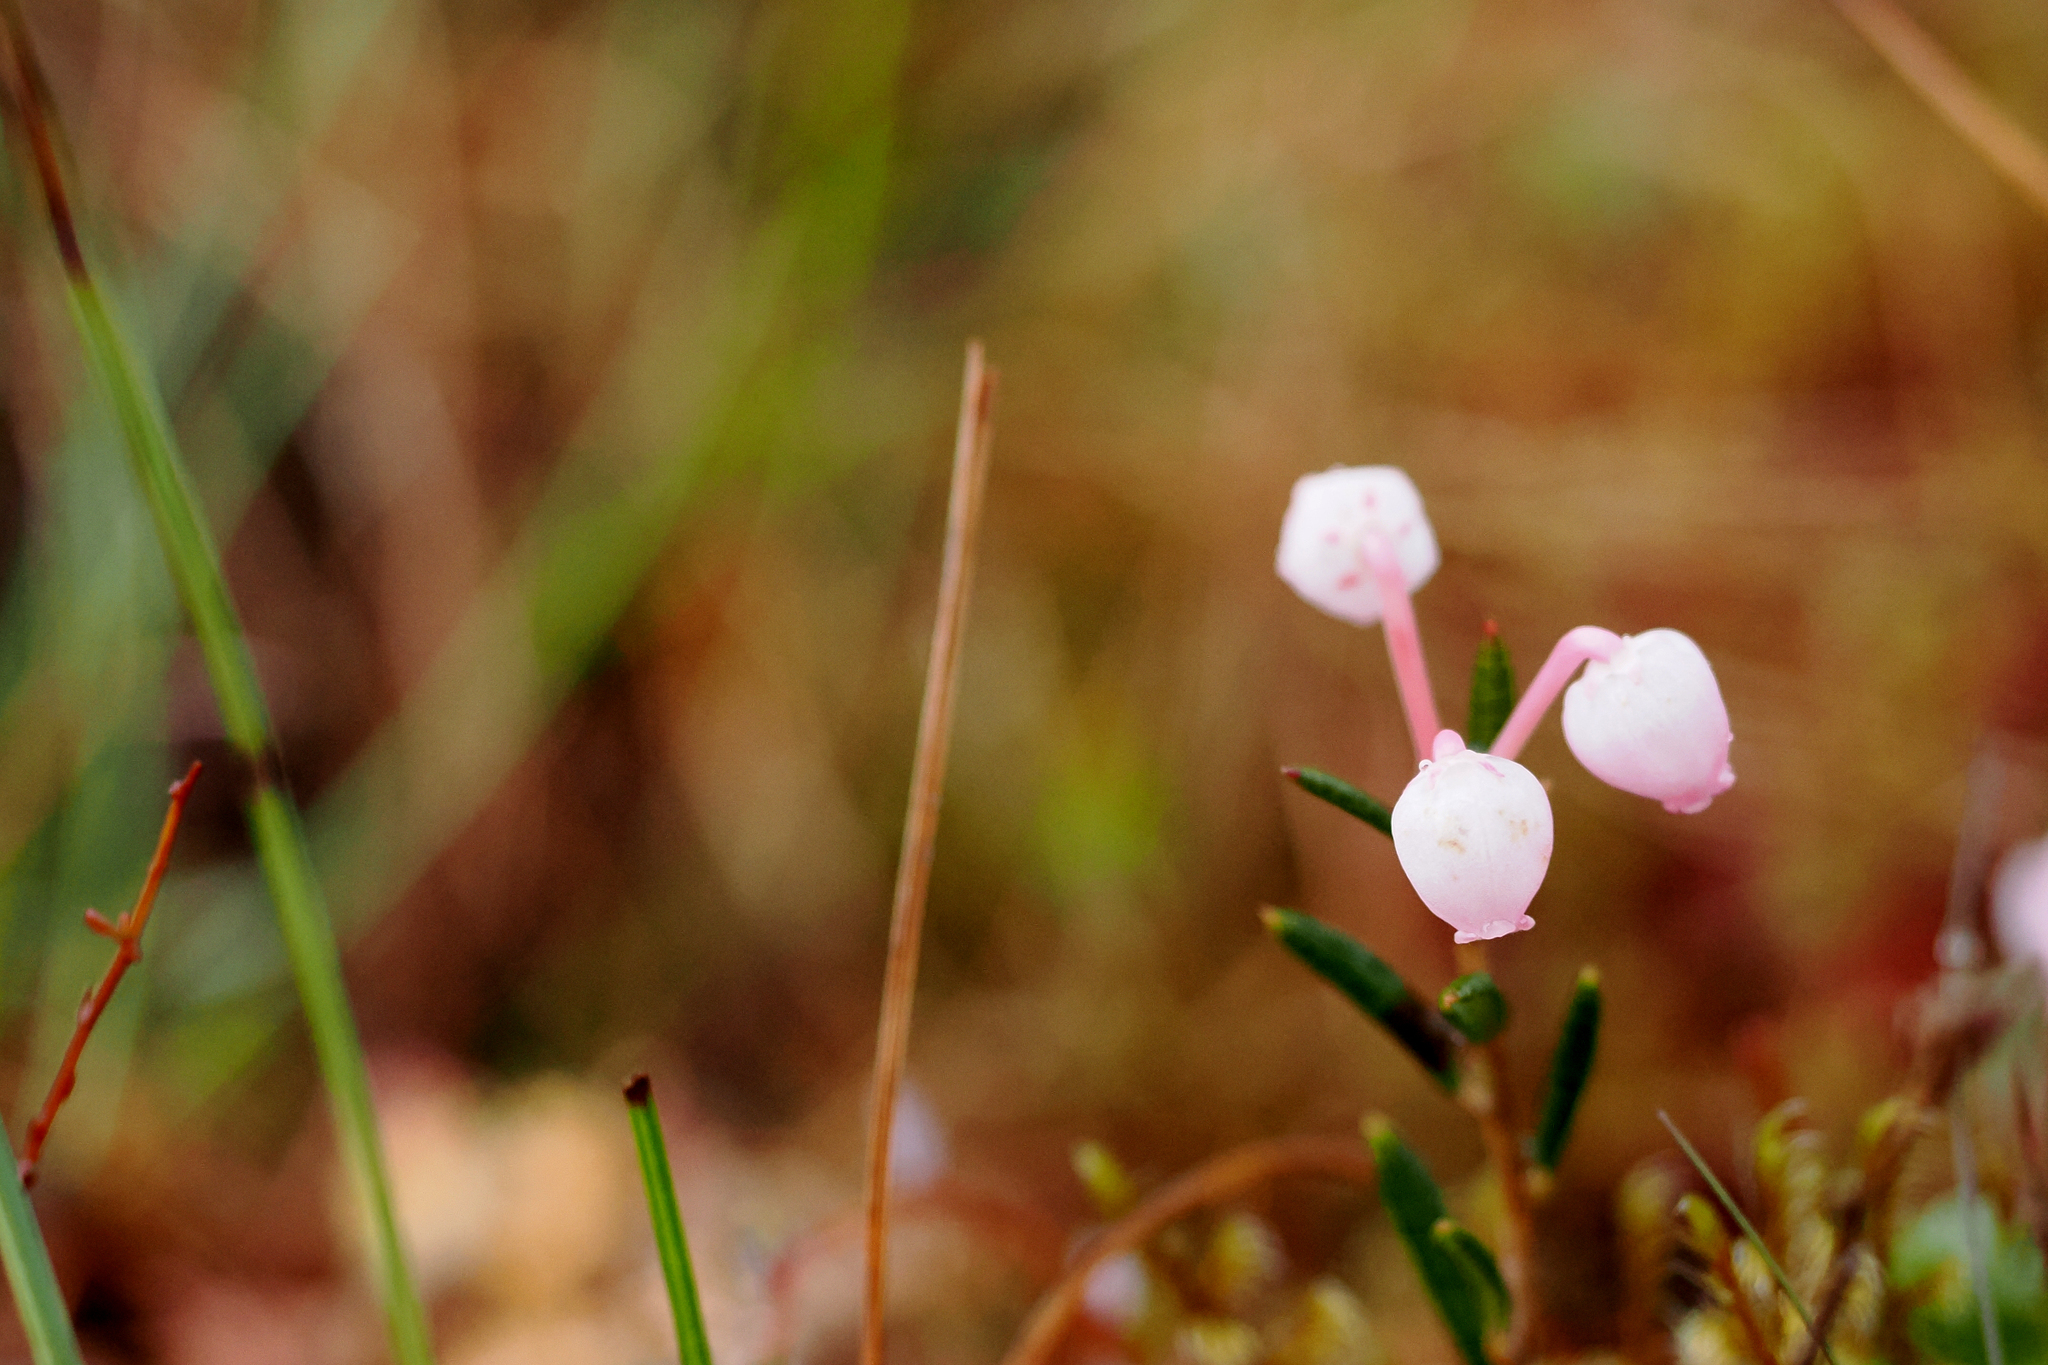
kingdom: Plantae
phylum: Tracheophyta
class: Magnoliopsida
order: Ericales
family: Ericaceae
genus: Andromeda
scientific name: Andromeda polifolia
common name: Bog-rosemary
